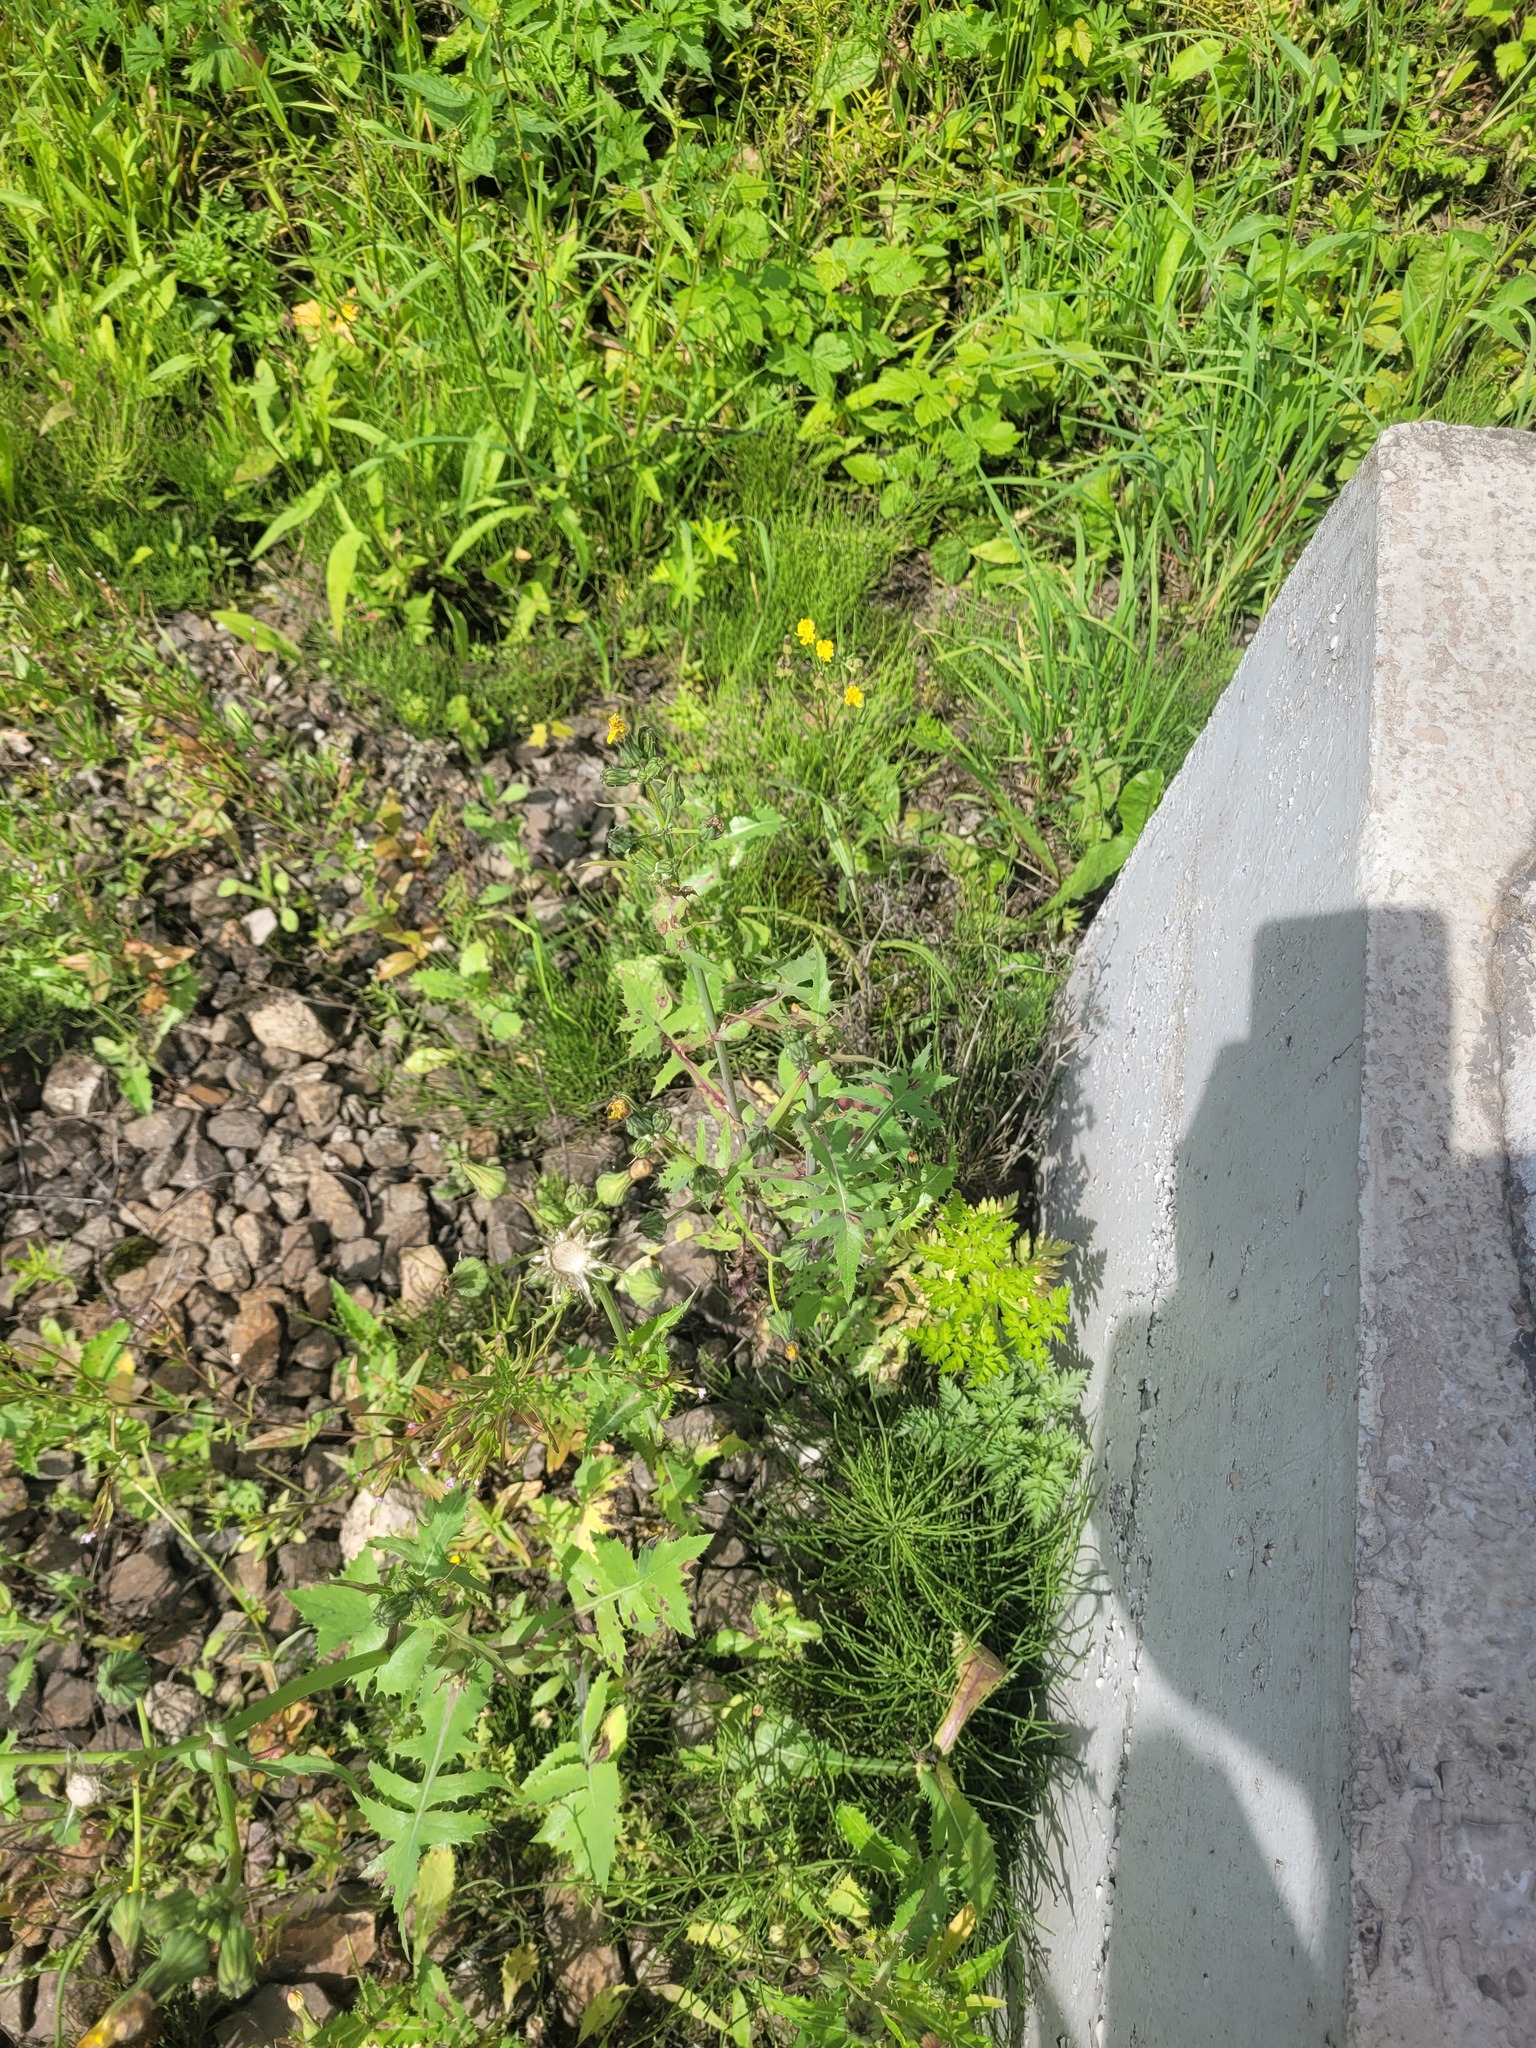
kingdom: Plantae
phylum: Tracheophyta
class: Magnoliopsida
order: Asterales
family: Asteraceae
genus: Sonchus
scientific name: Sonchus oleraceus
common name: Common sowthistle
